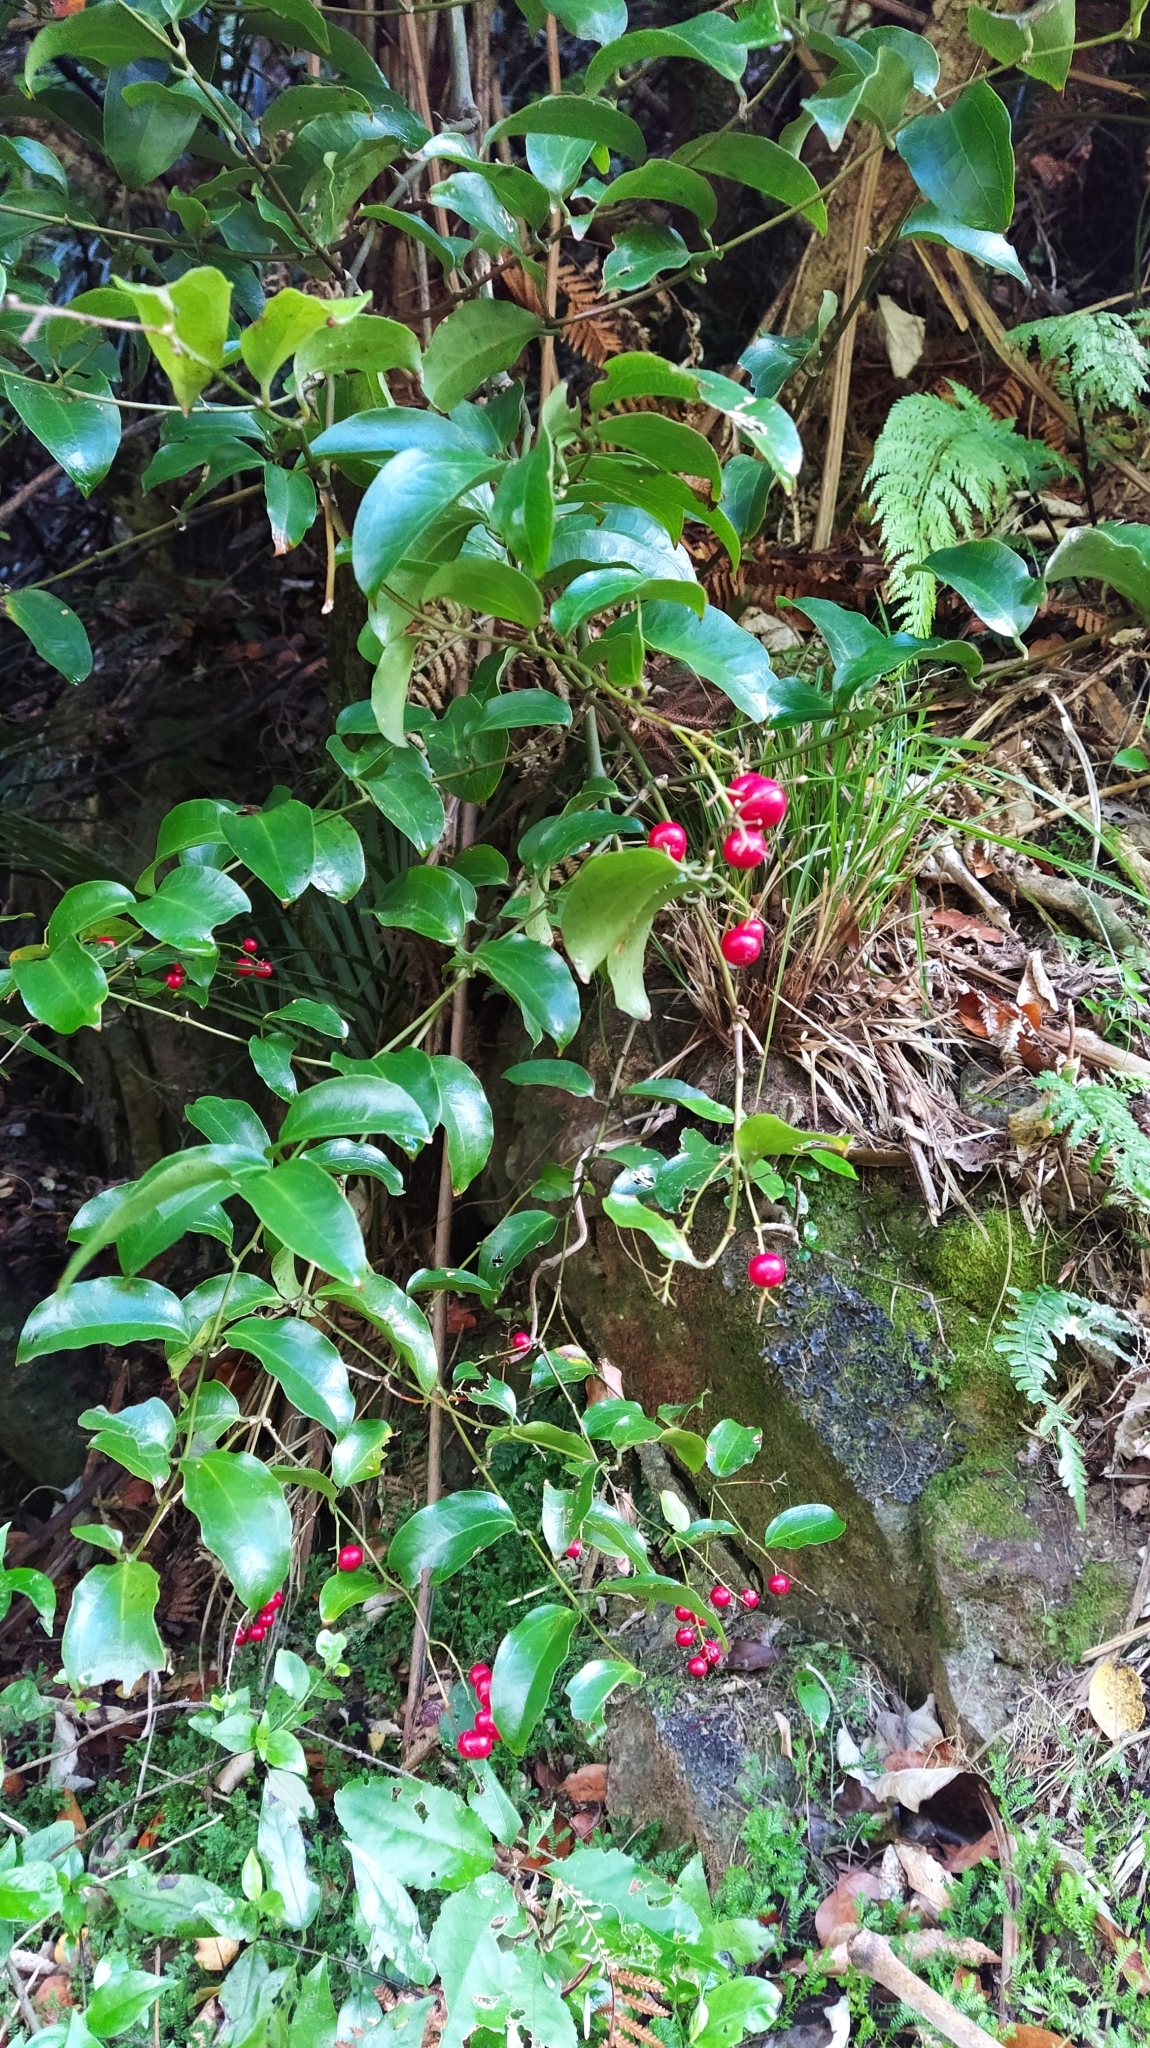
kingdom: Plantae
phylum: Tracheophyta
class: Liliopsida
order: Liliales
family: Ripogonaceae
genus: Ripogonum
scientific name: Ripogonum scandens
